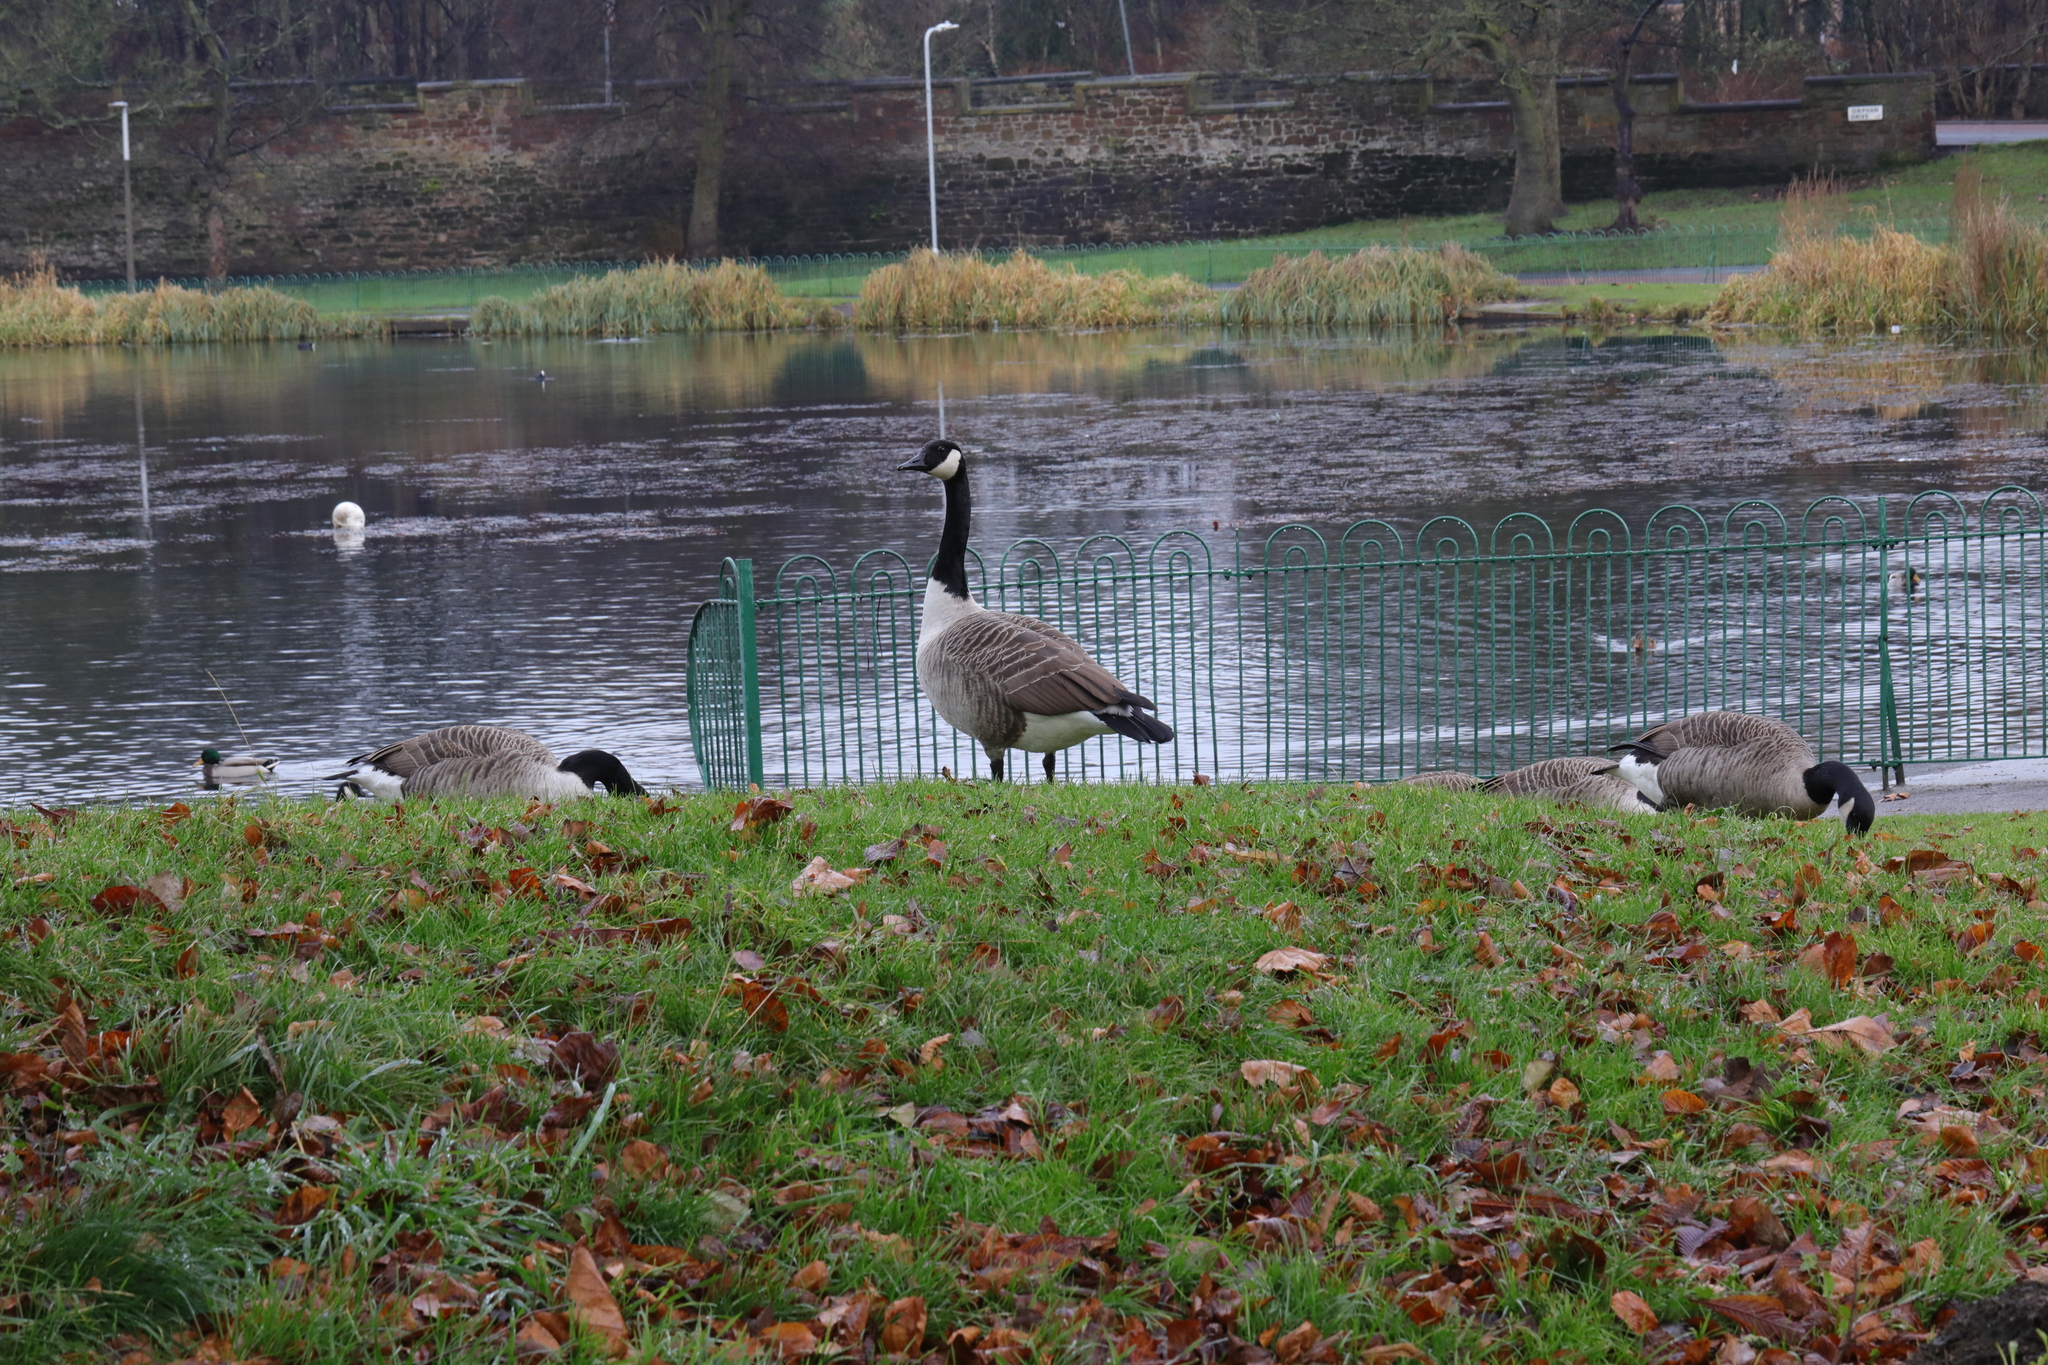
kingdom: Animalia
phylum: Chordata
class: Aves
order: Anseriformes
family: Anatidae
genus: Branta
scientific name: Branta canadensis
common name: Canada goose
